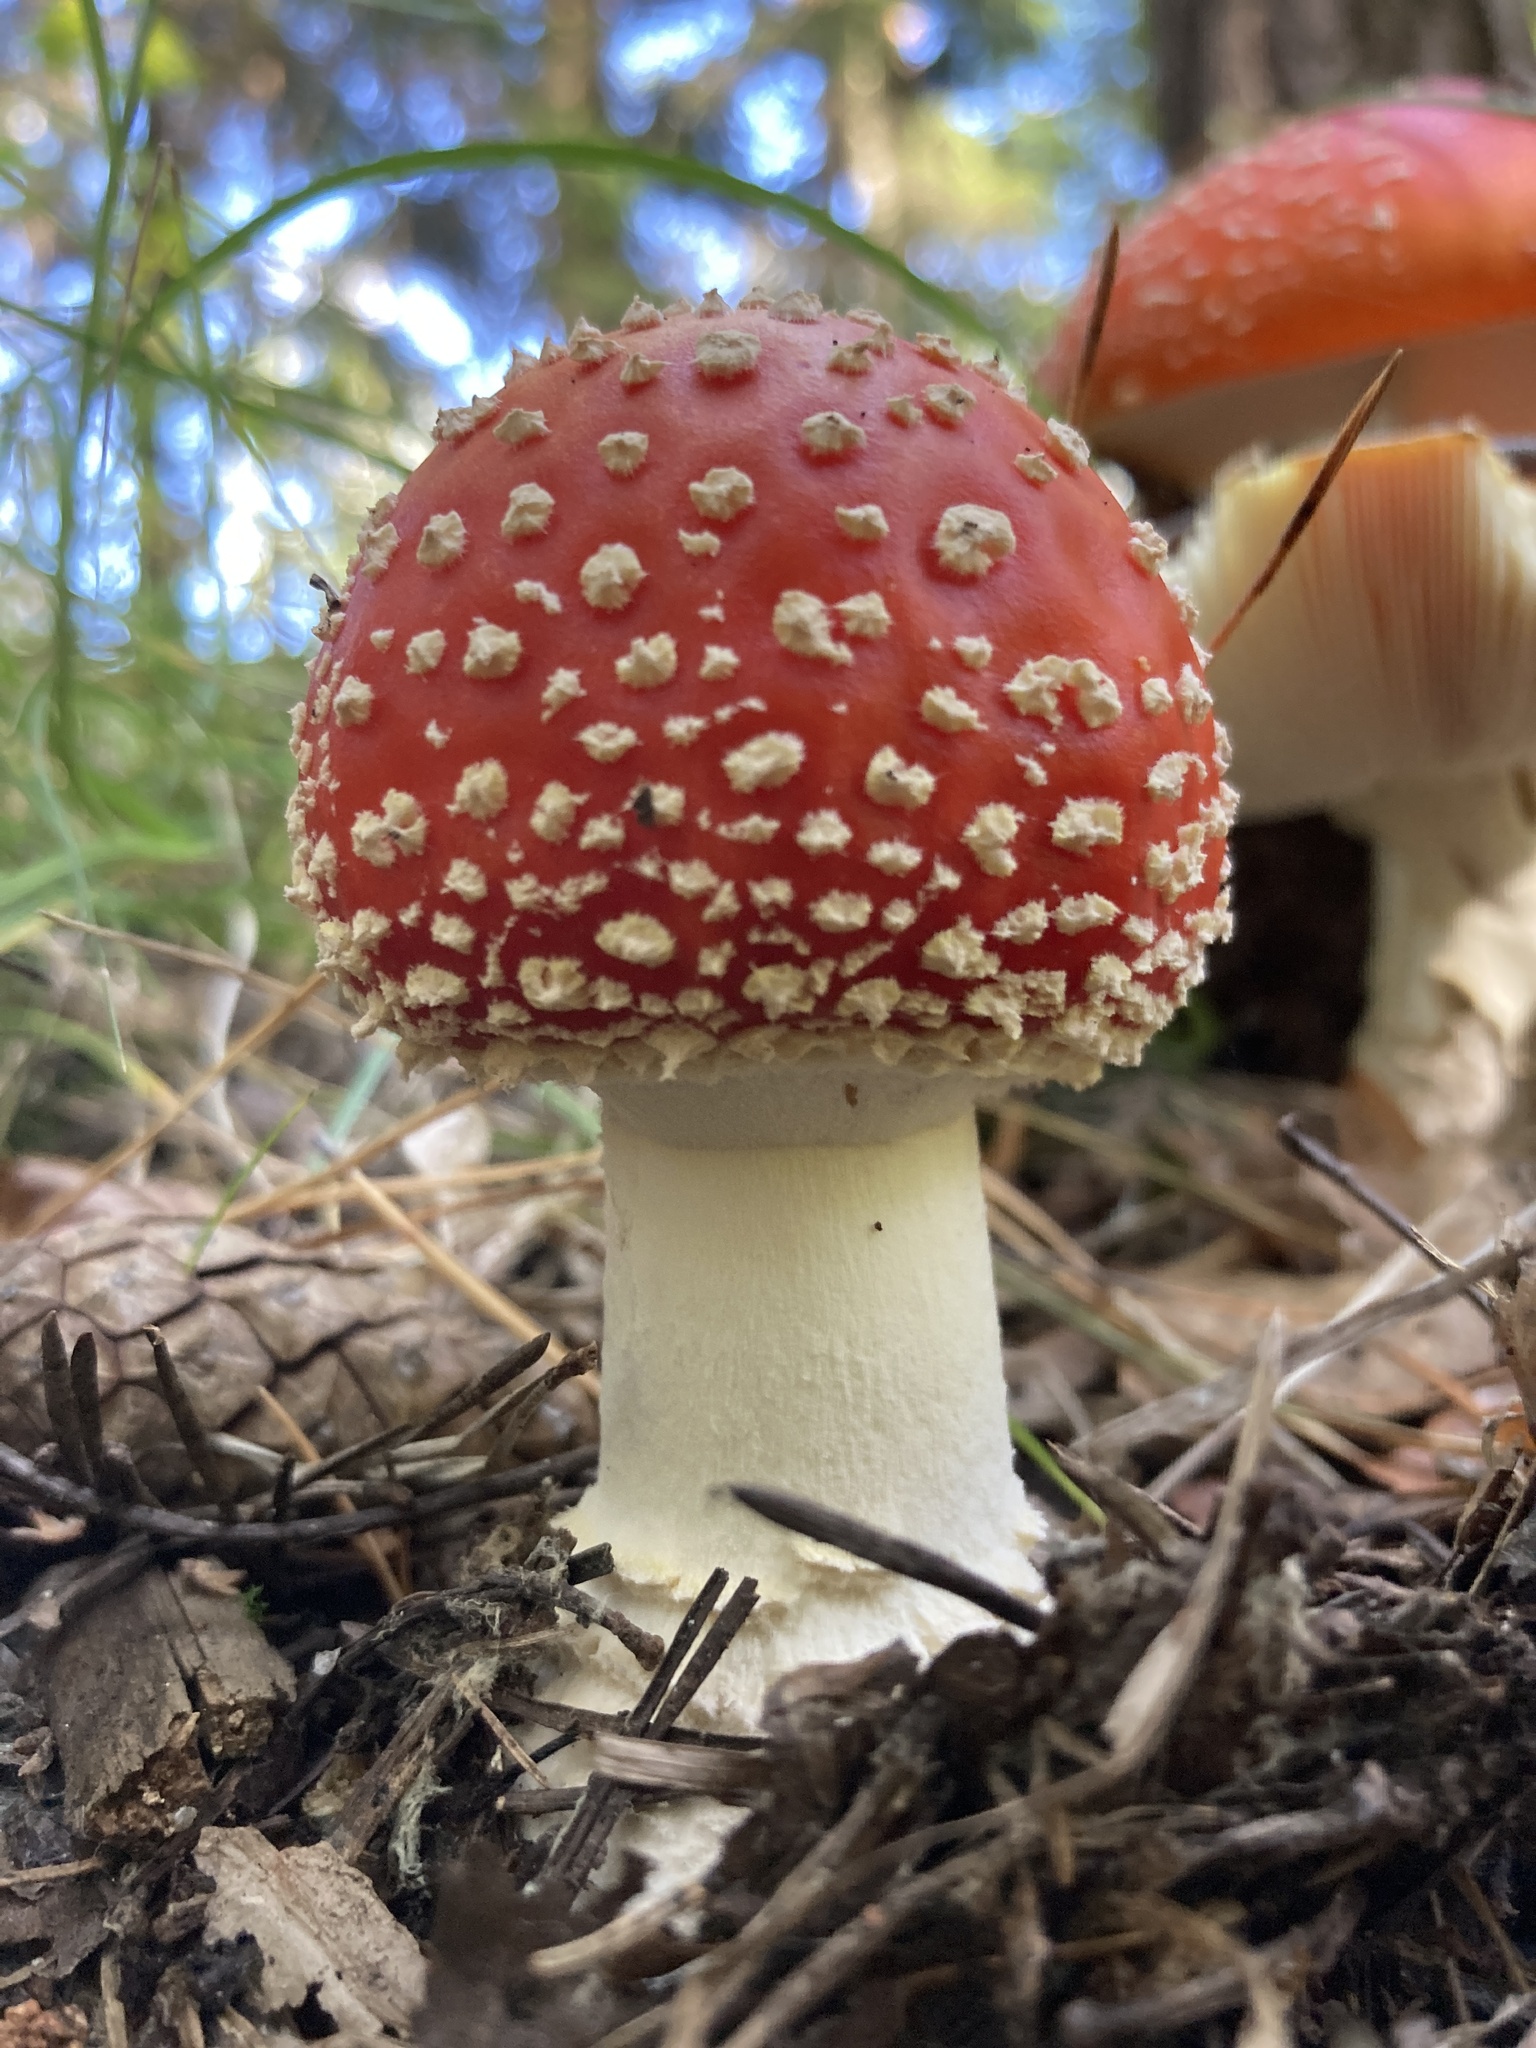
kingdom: Fungi
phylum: Basidiomycota
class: Agaricomycetes
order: Agaricales
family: Amanitaceae
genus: Amanita
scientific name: Amanita muscaria
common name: Fly agaric
